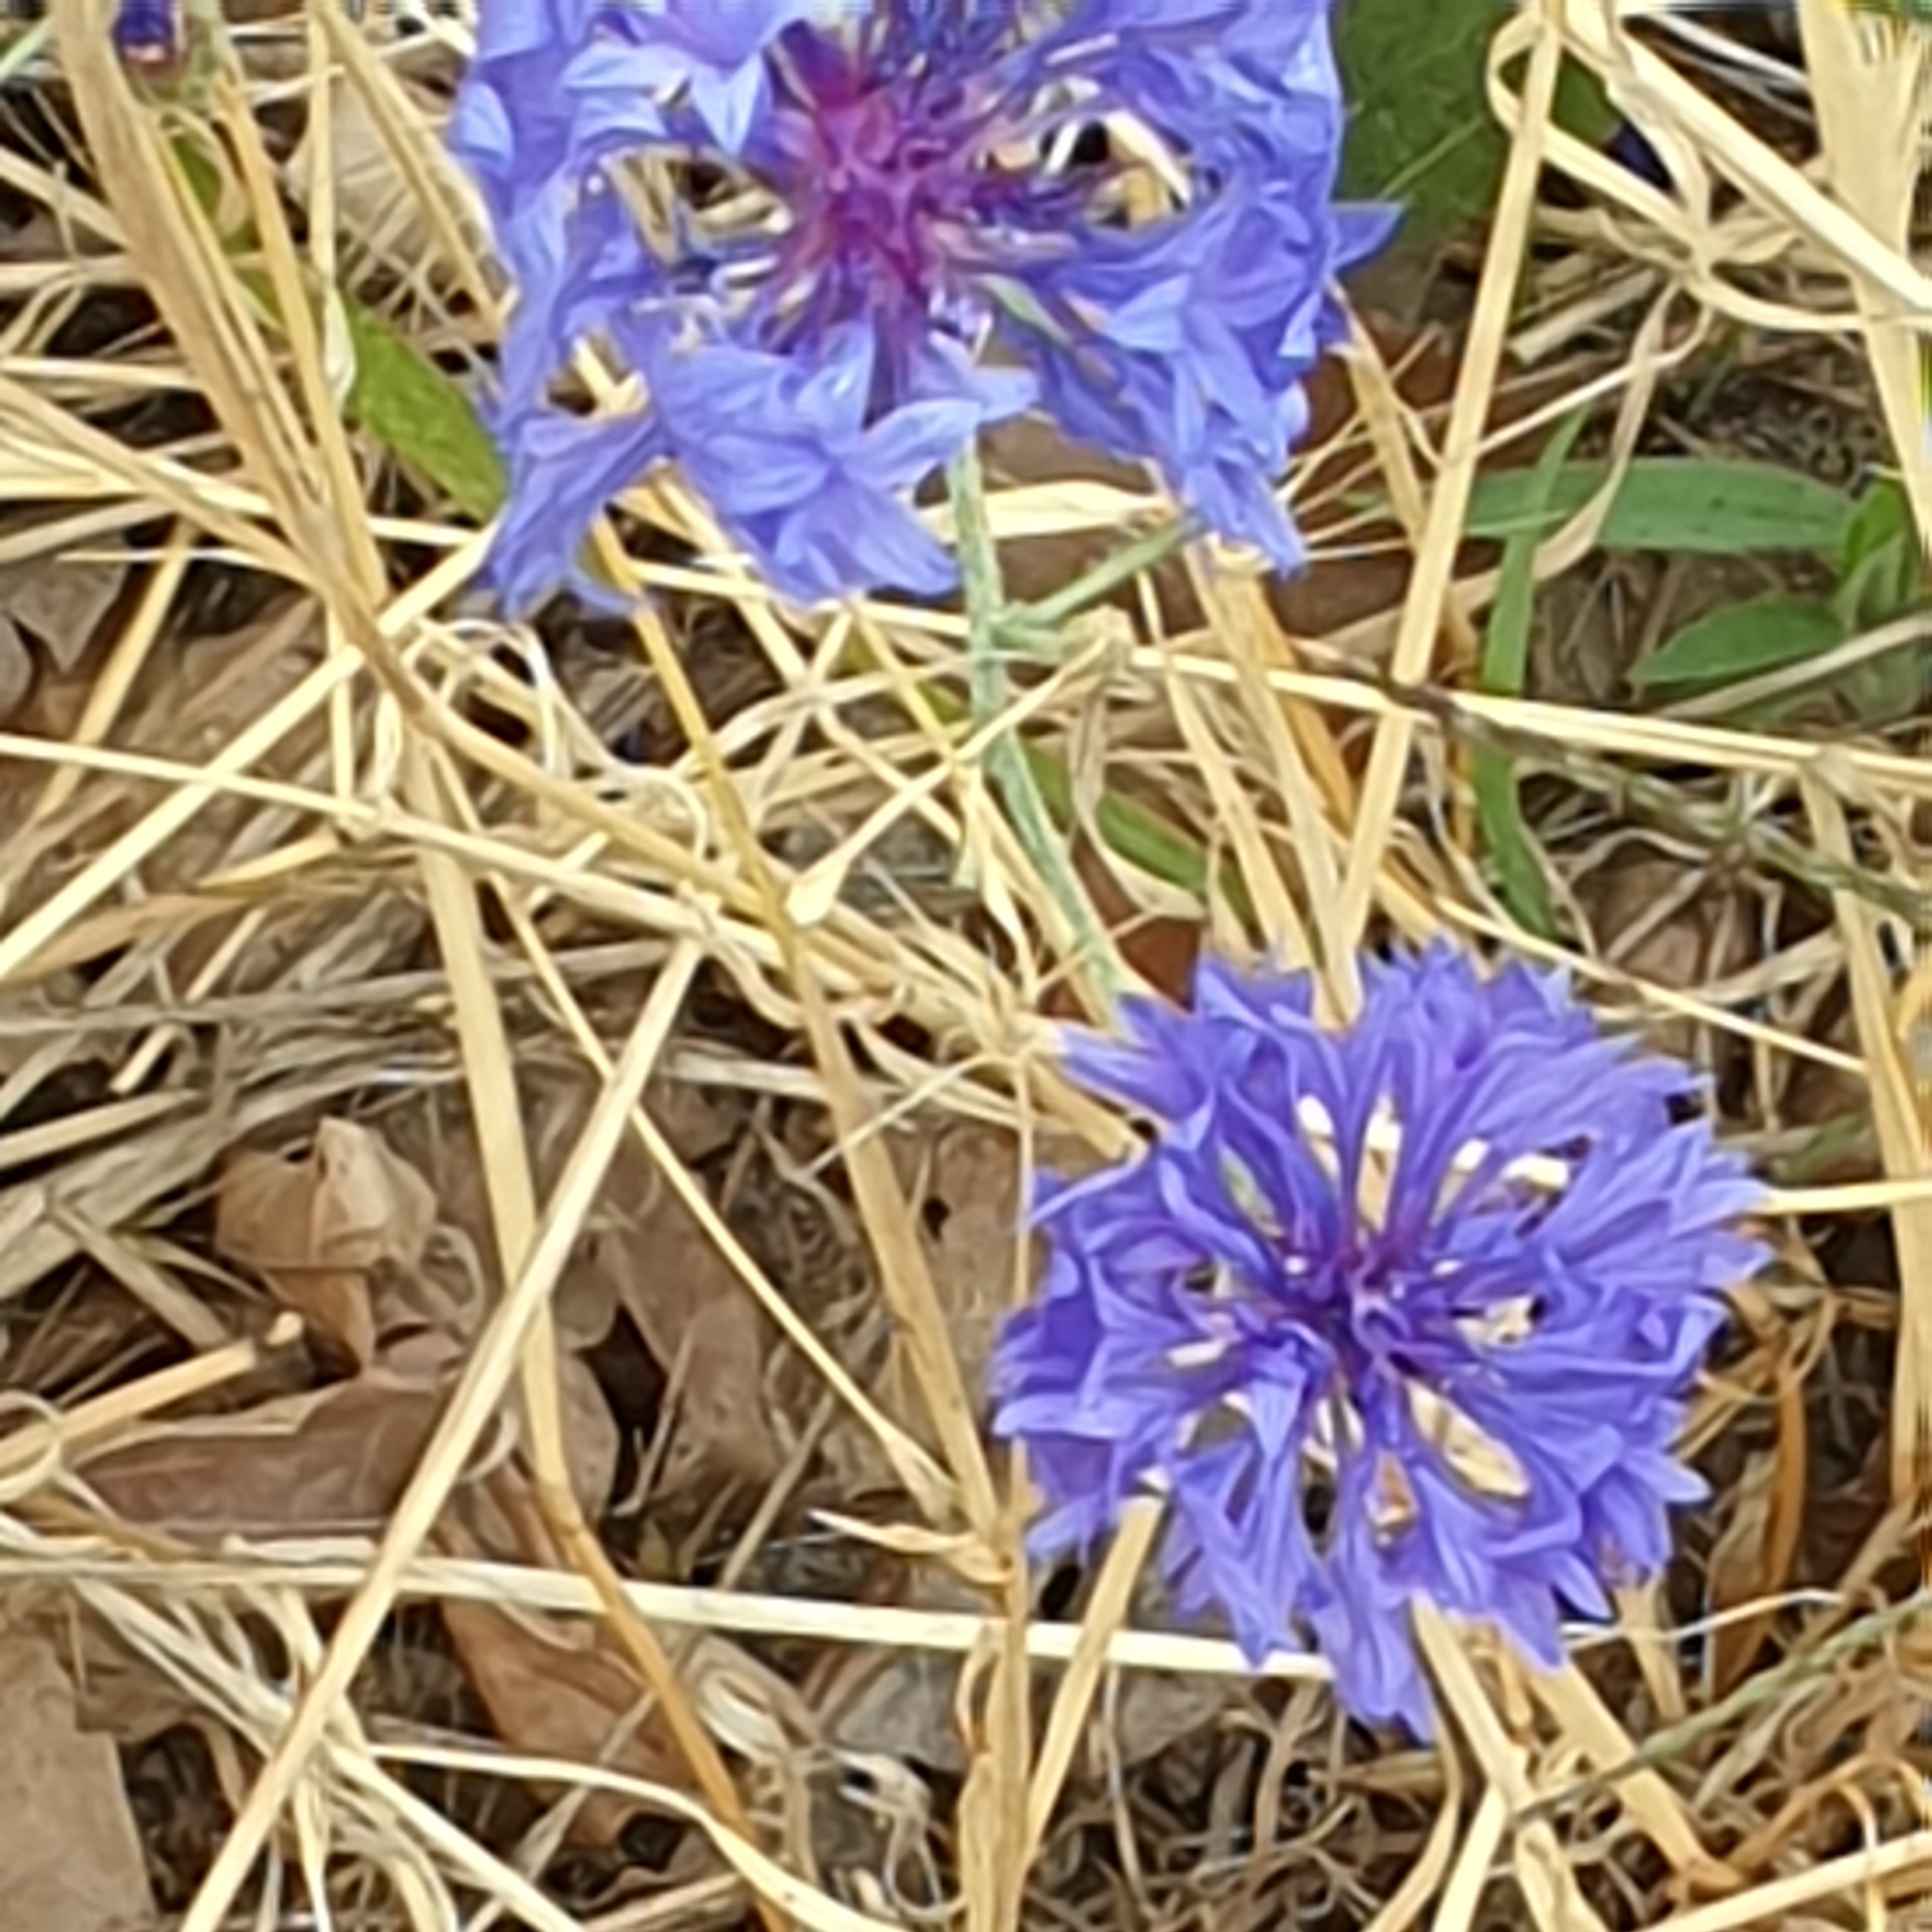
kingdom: Plantae
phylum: Tracheophyta
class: Magnoliopsida
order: Asterales
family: Asteraceae
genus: Centaurea
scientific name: Centaurea cyanus
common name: Cornflower
